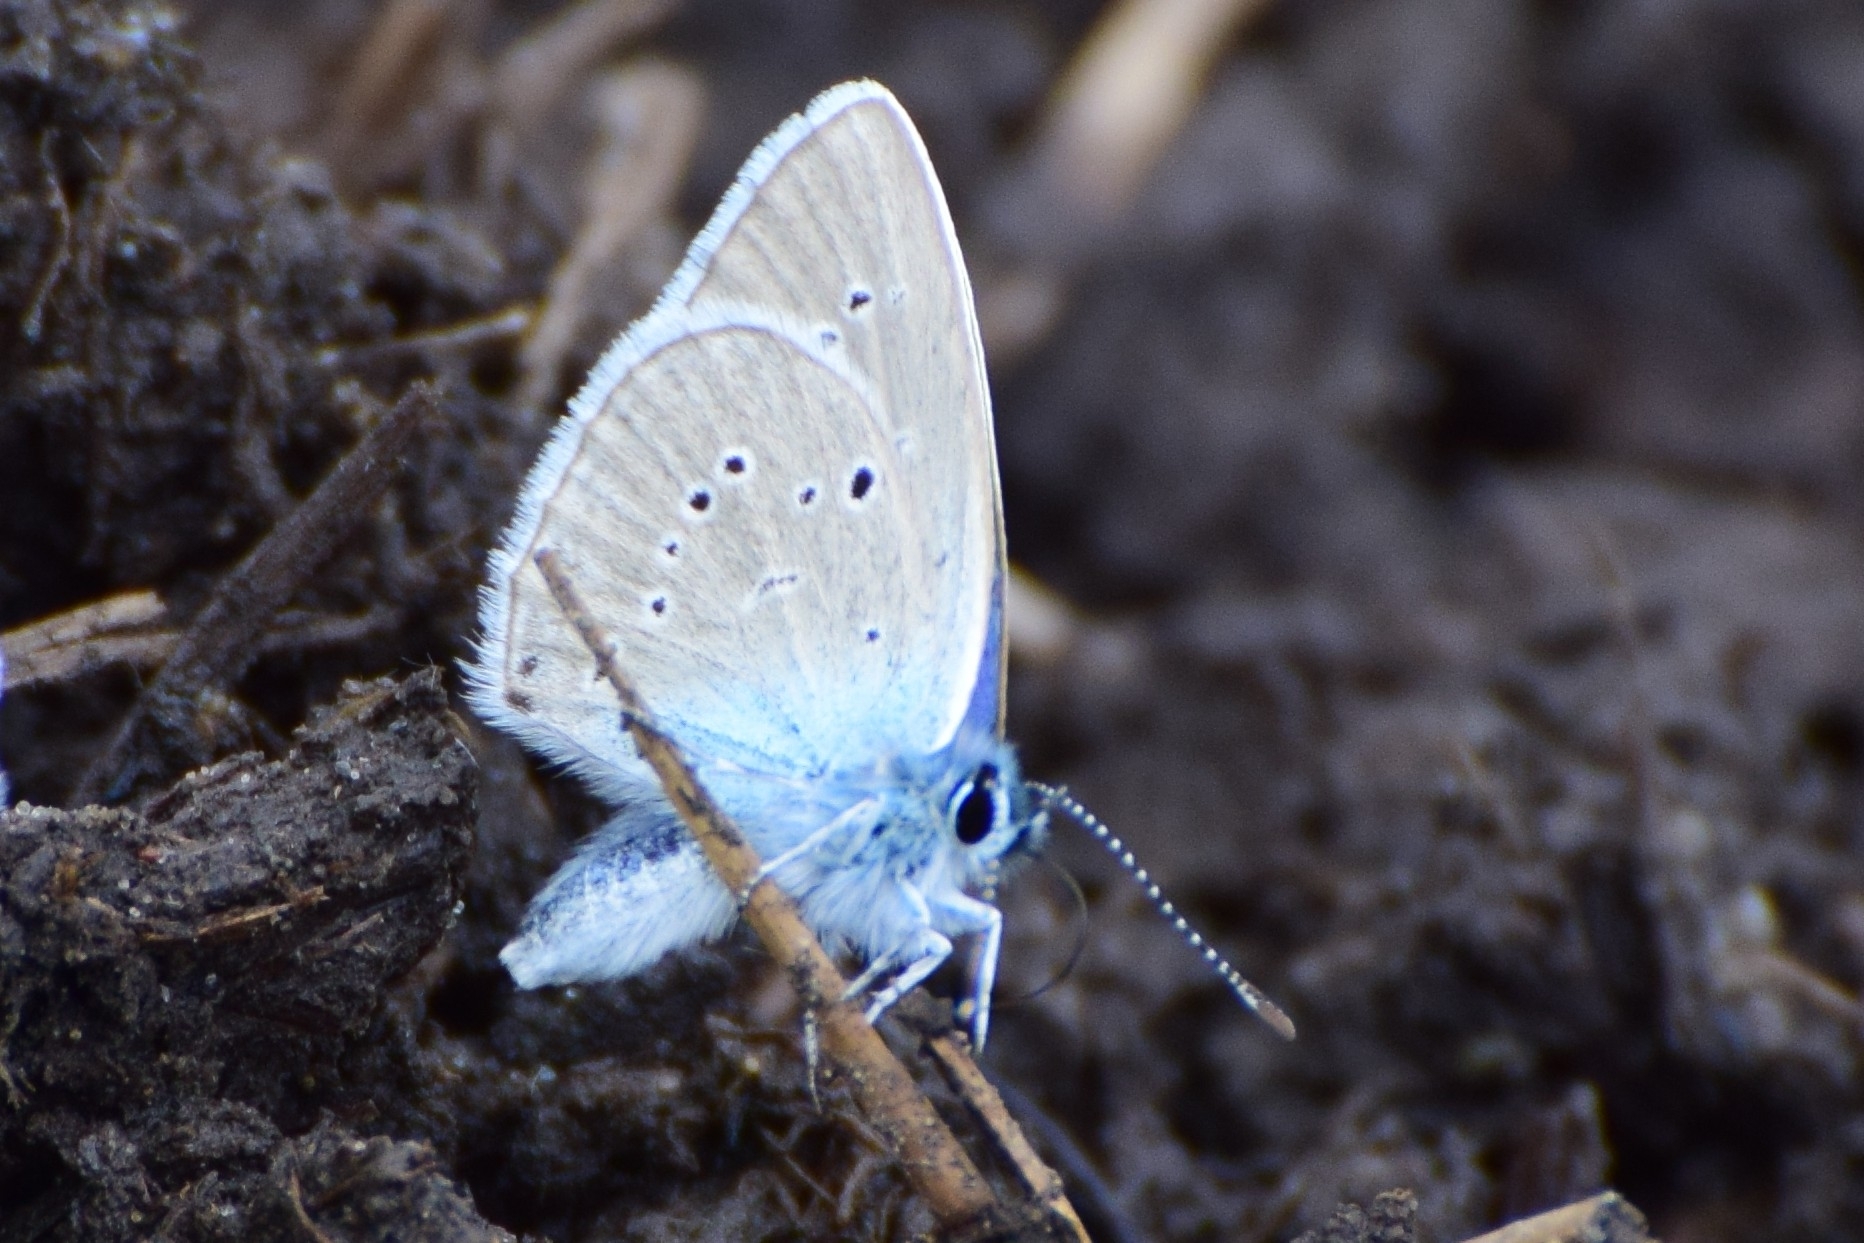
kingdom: Animalia
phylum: Arthropoda
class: Insecta
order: Lepidoptera
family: Lycaenidae
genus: Cyaniris
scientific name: Cyaniris semiargus
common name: Mazarine blue
